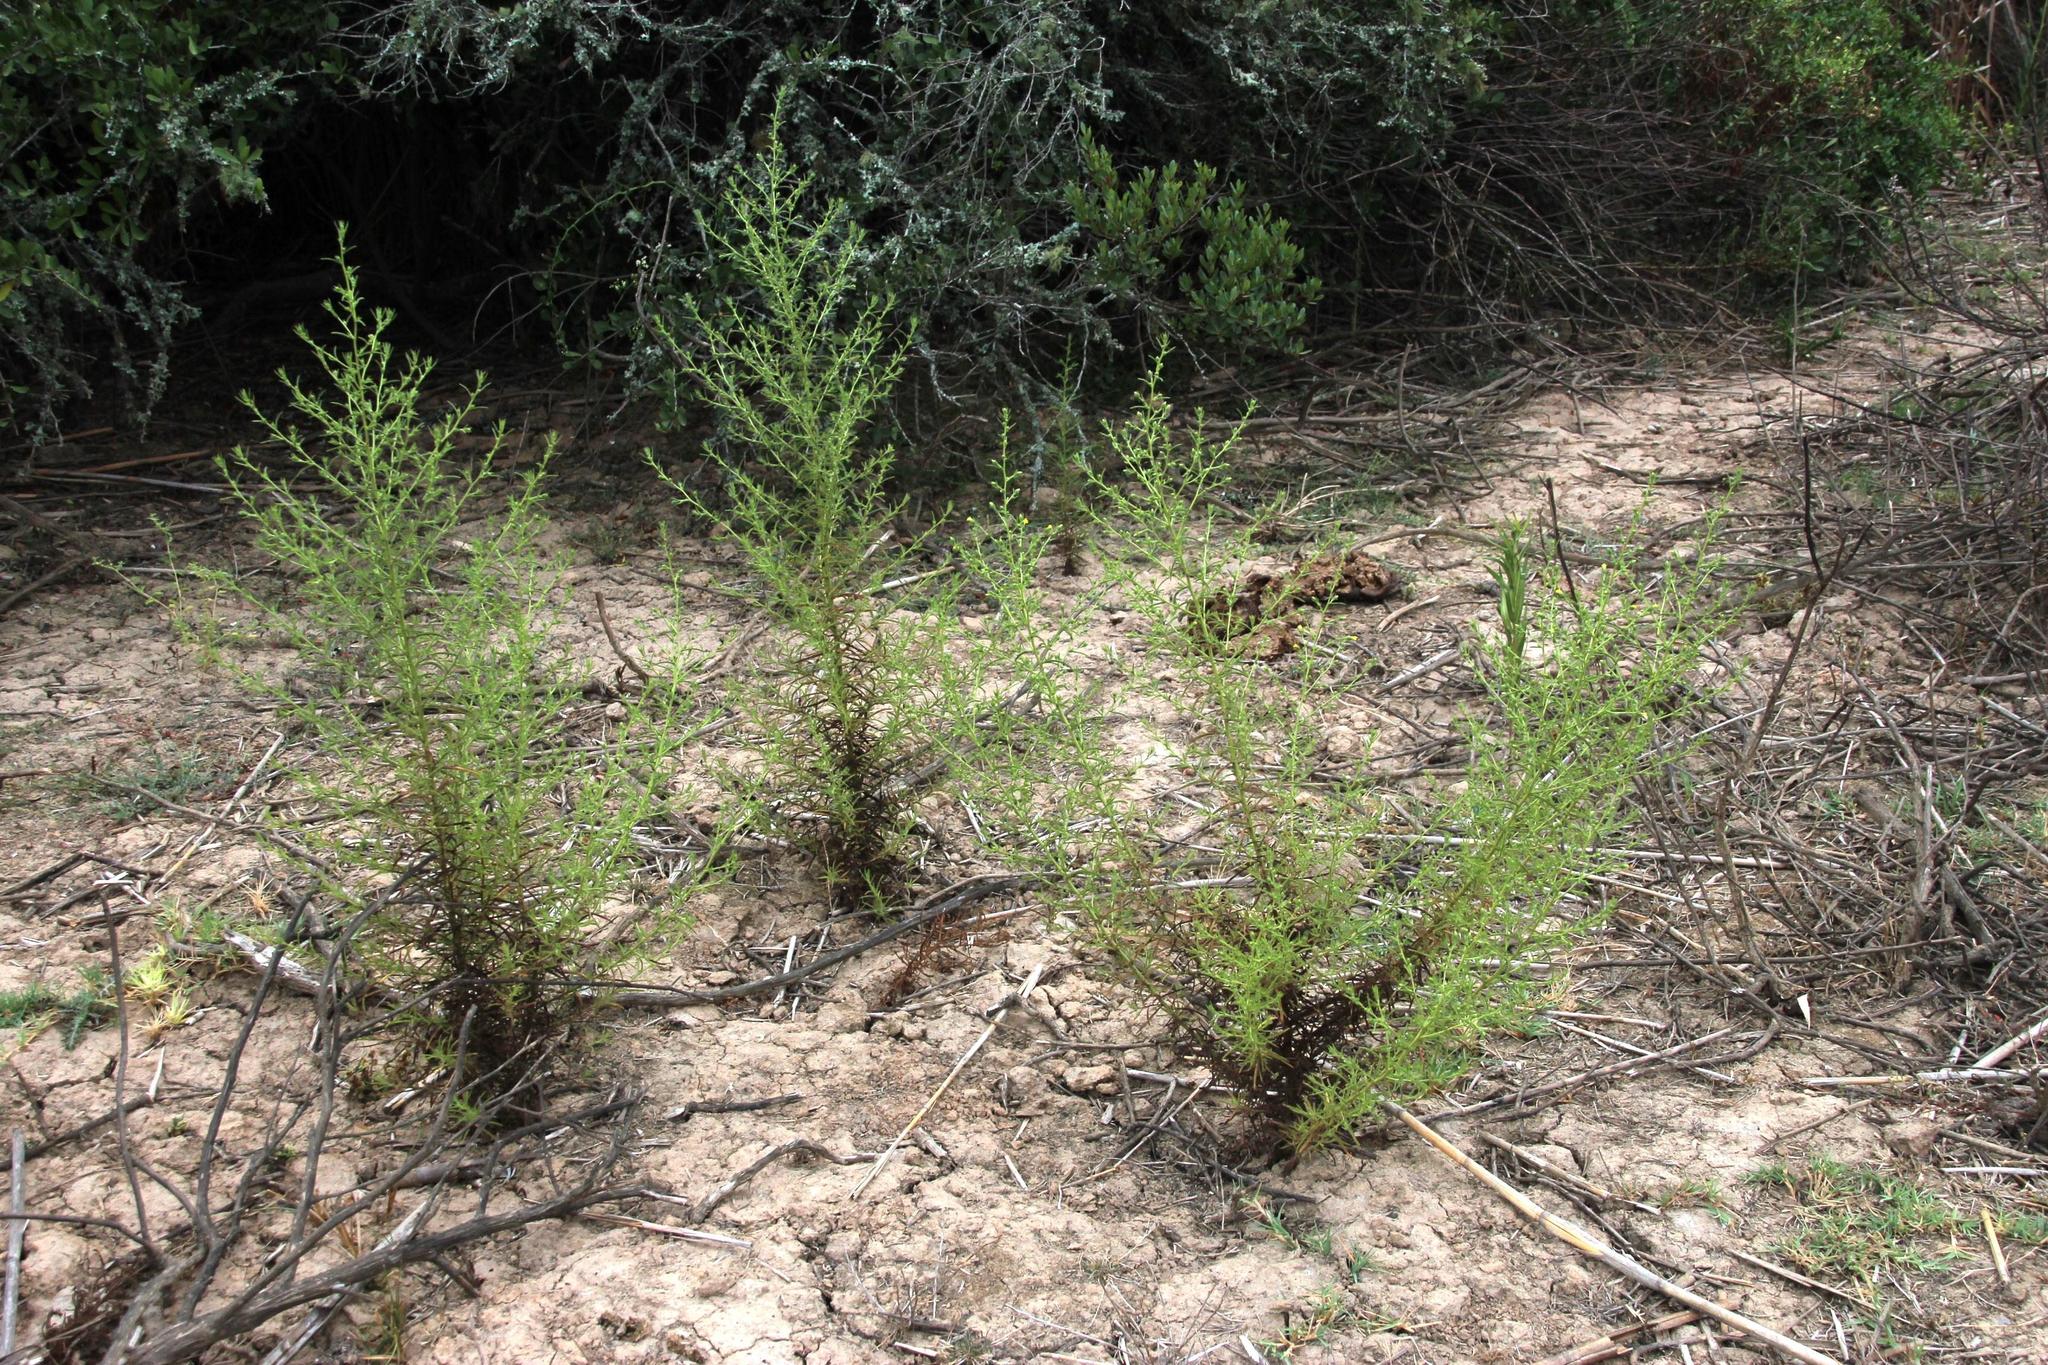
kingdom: Plantae
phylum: Tracheophyta
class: Magnoliopsida
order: Asterales
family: Asteraceae
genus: Dittrichia
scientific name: Dittrichia graveolens
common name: Stinking fleabane
